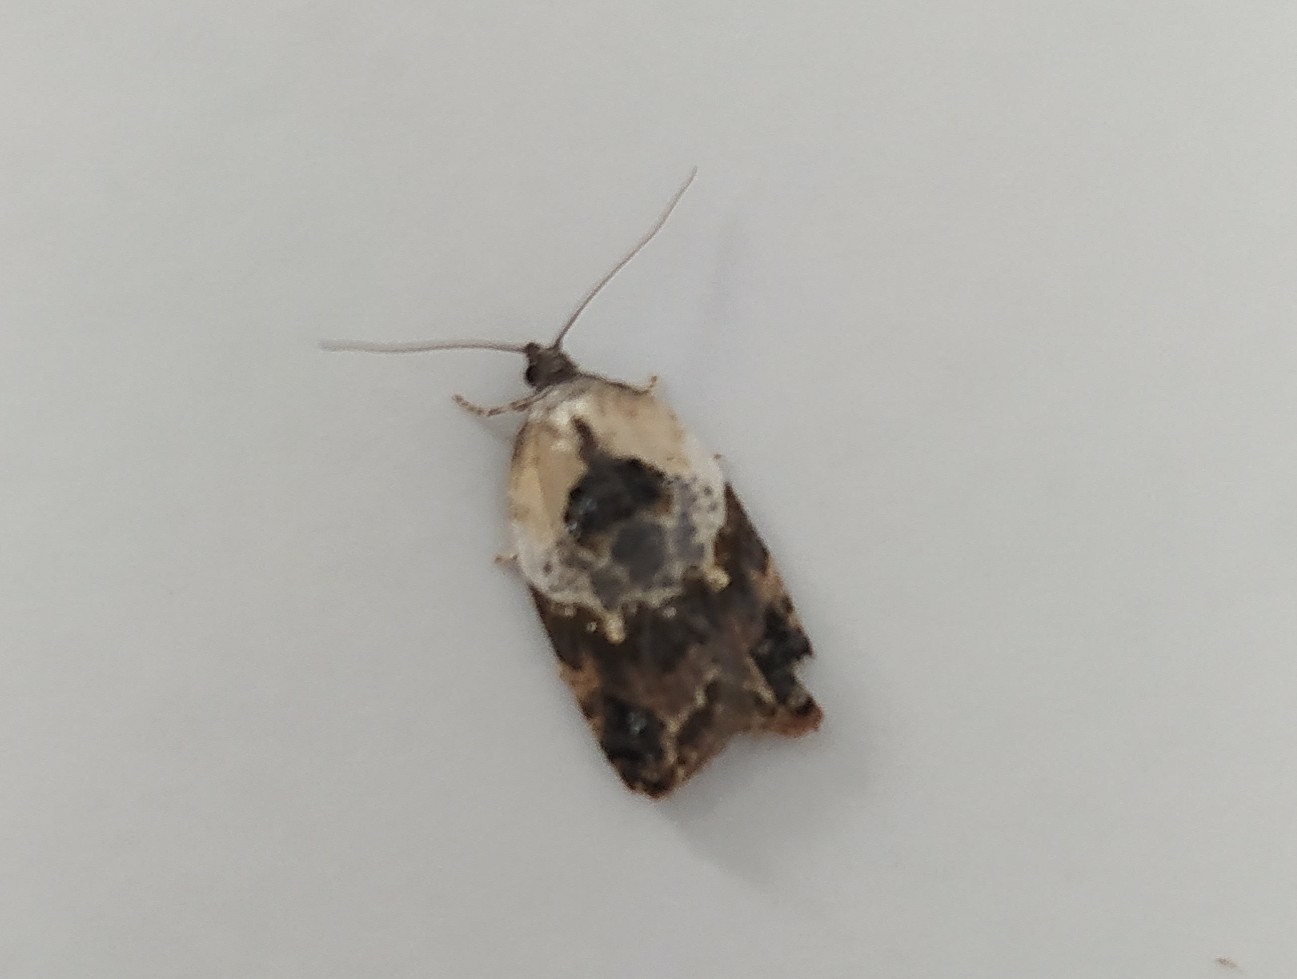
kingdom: Animalia
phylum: Arthropoda
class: Insecta
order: Lepidoptera
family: Tortricidae
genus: Acleris
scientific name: Acleris variegana
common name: Garden rose tortrix
